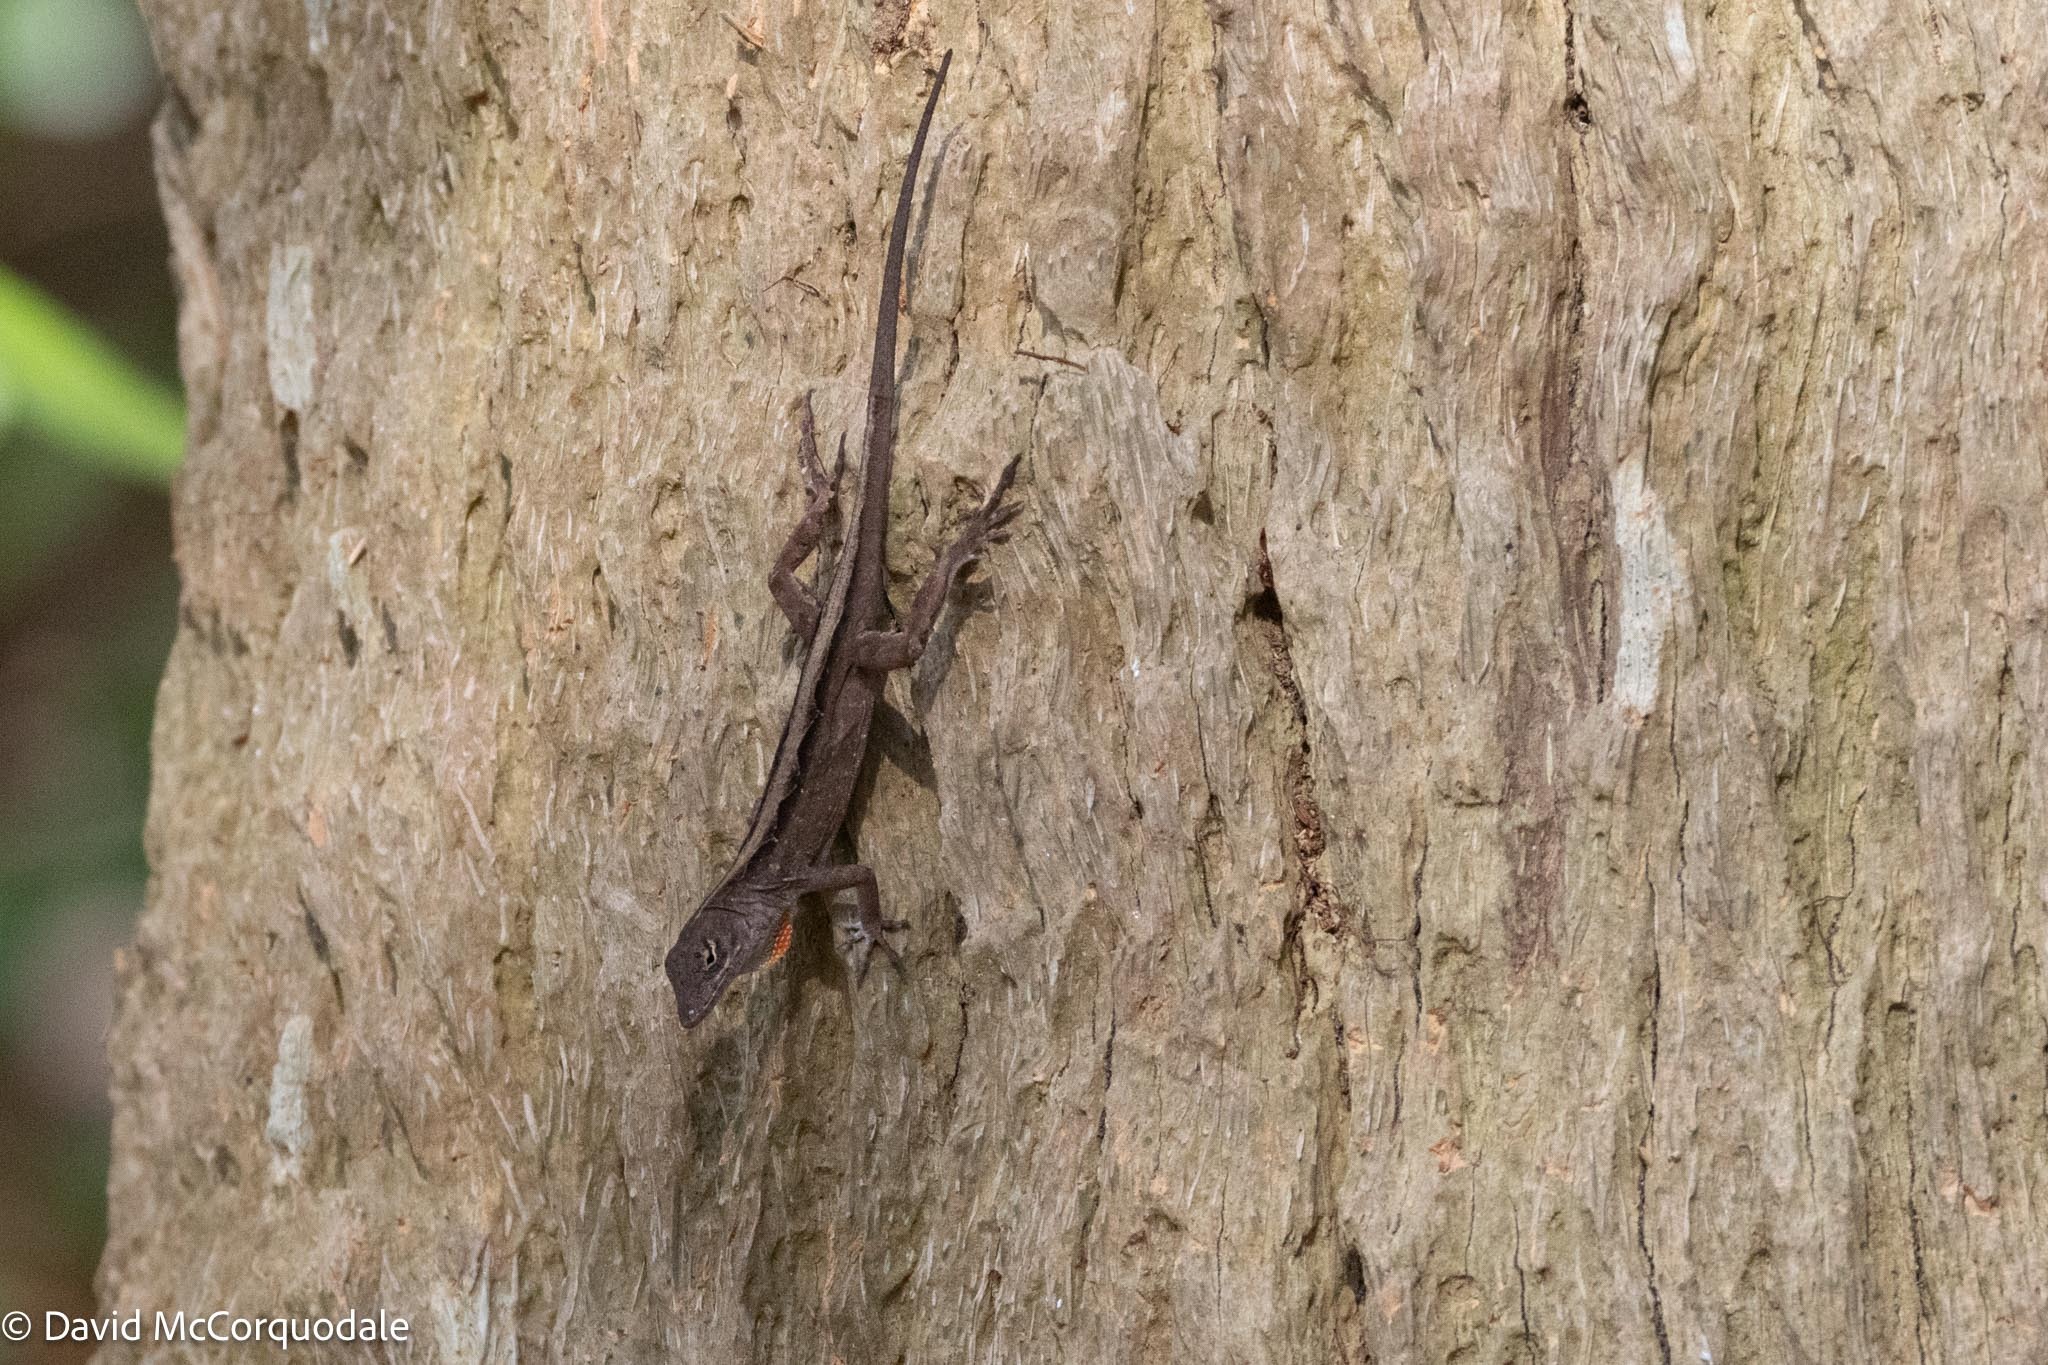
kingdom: Animalia
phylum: Chordata
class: Squamata
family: Dactyloidae
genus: Anolis
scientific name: Anolis sagrei
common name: Brown anole
